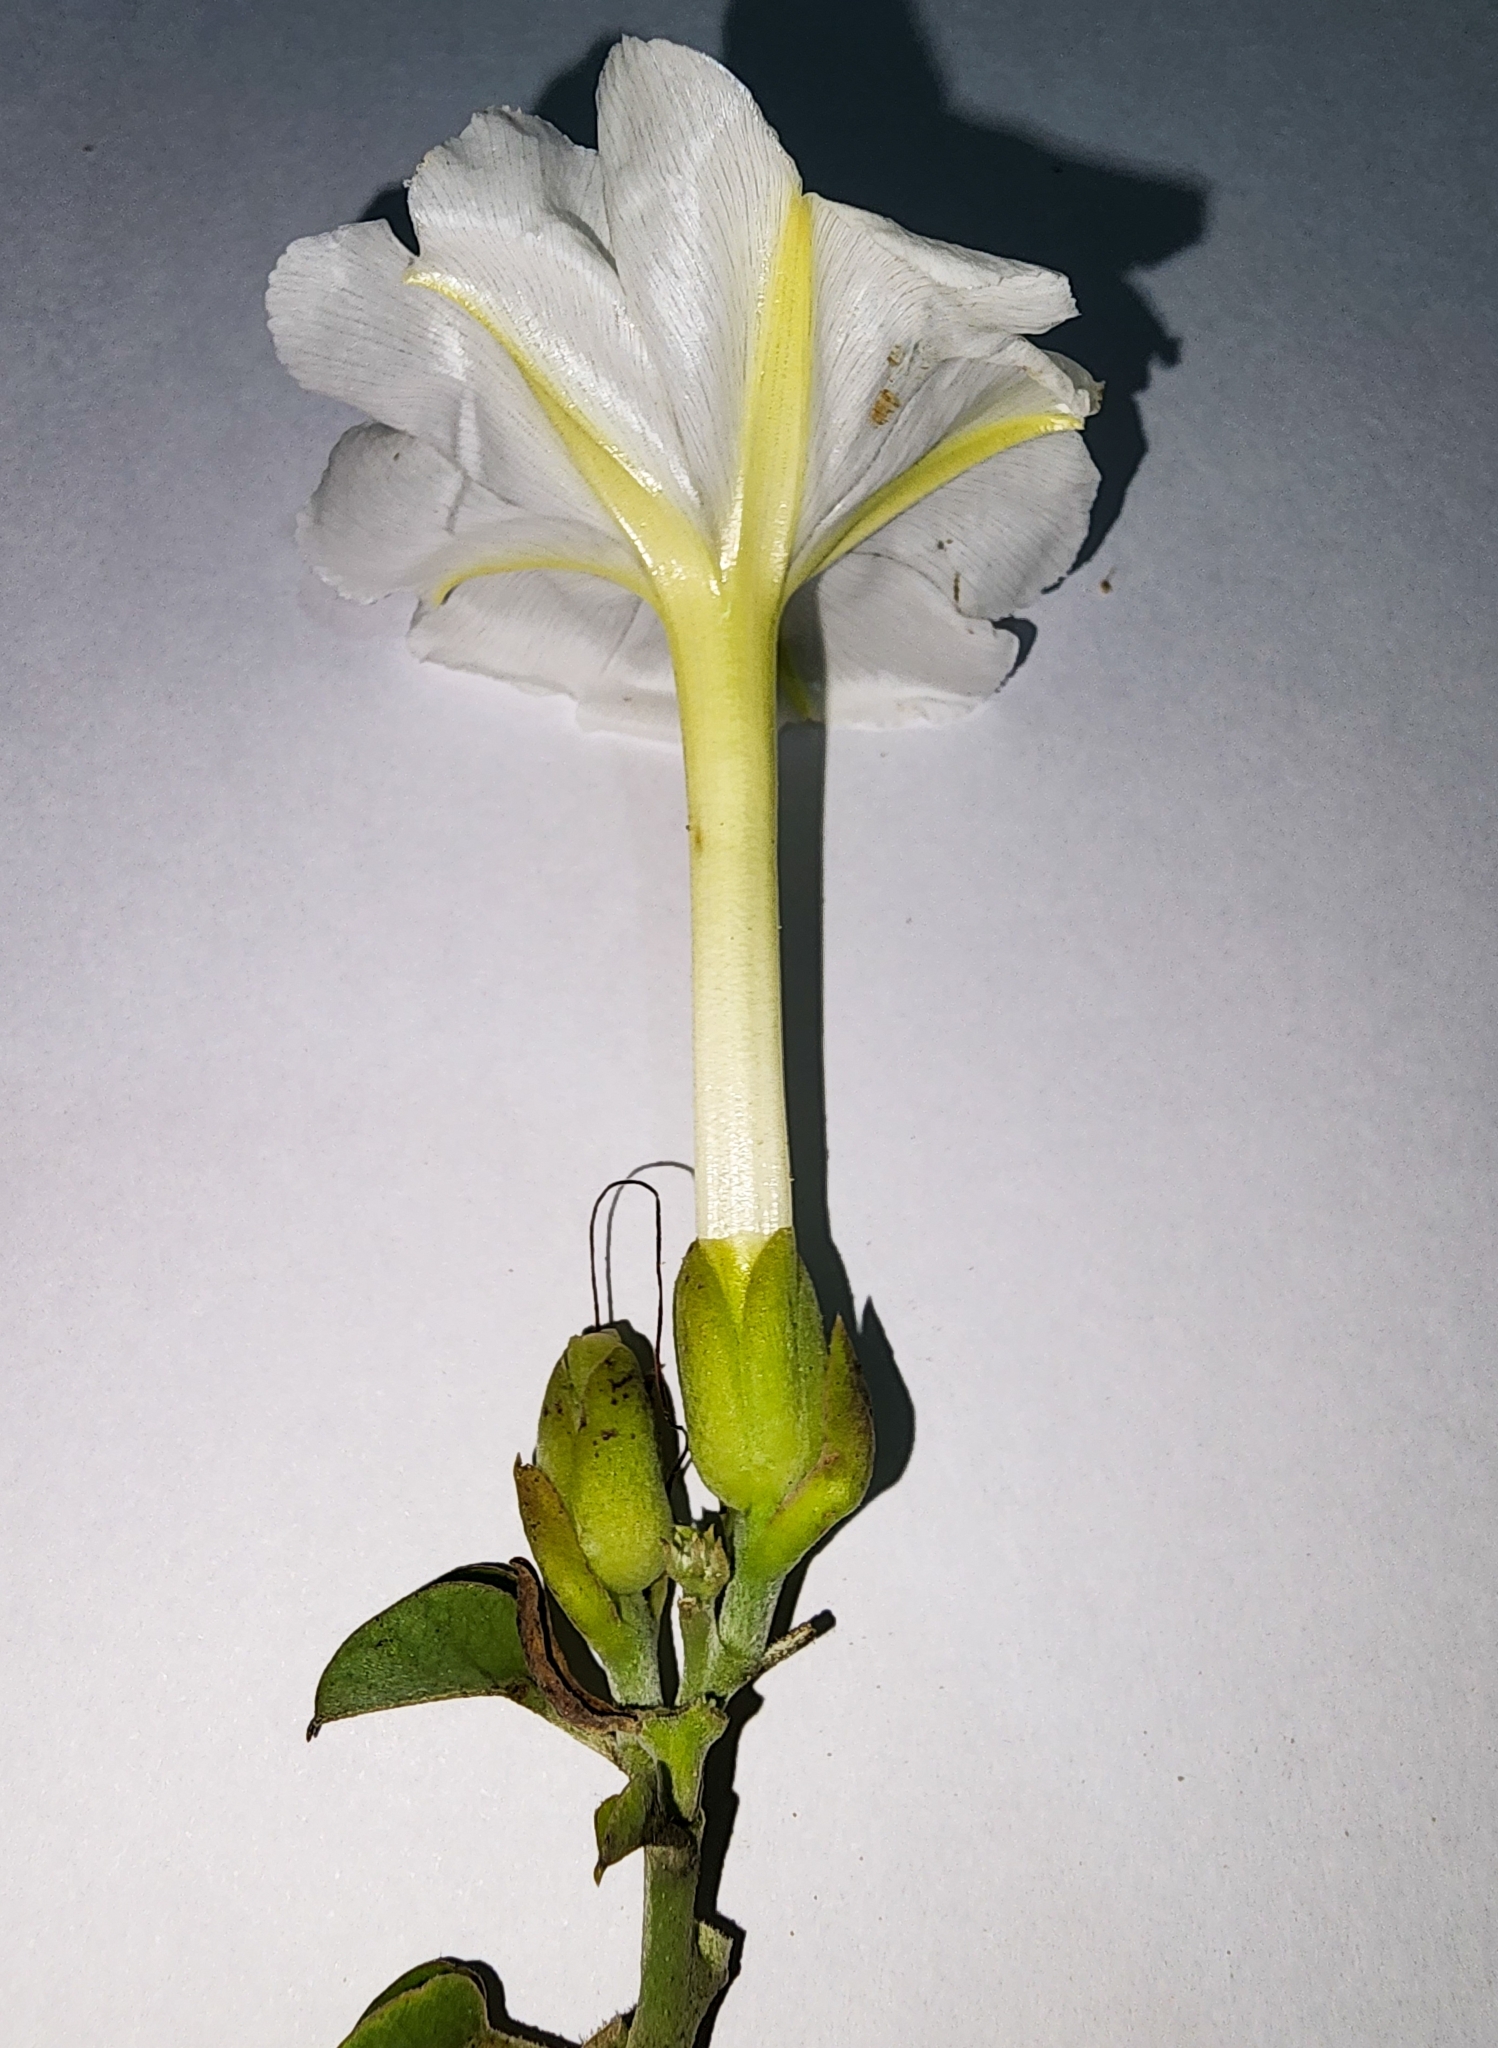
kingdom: Plantae
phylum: Tracheophyta
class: Magnoliopsida
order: Solanales
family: Convolvulaceae
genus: Rivea
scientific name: Rivea hypocrateriformis
